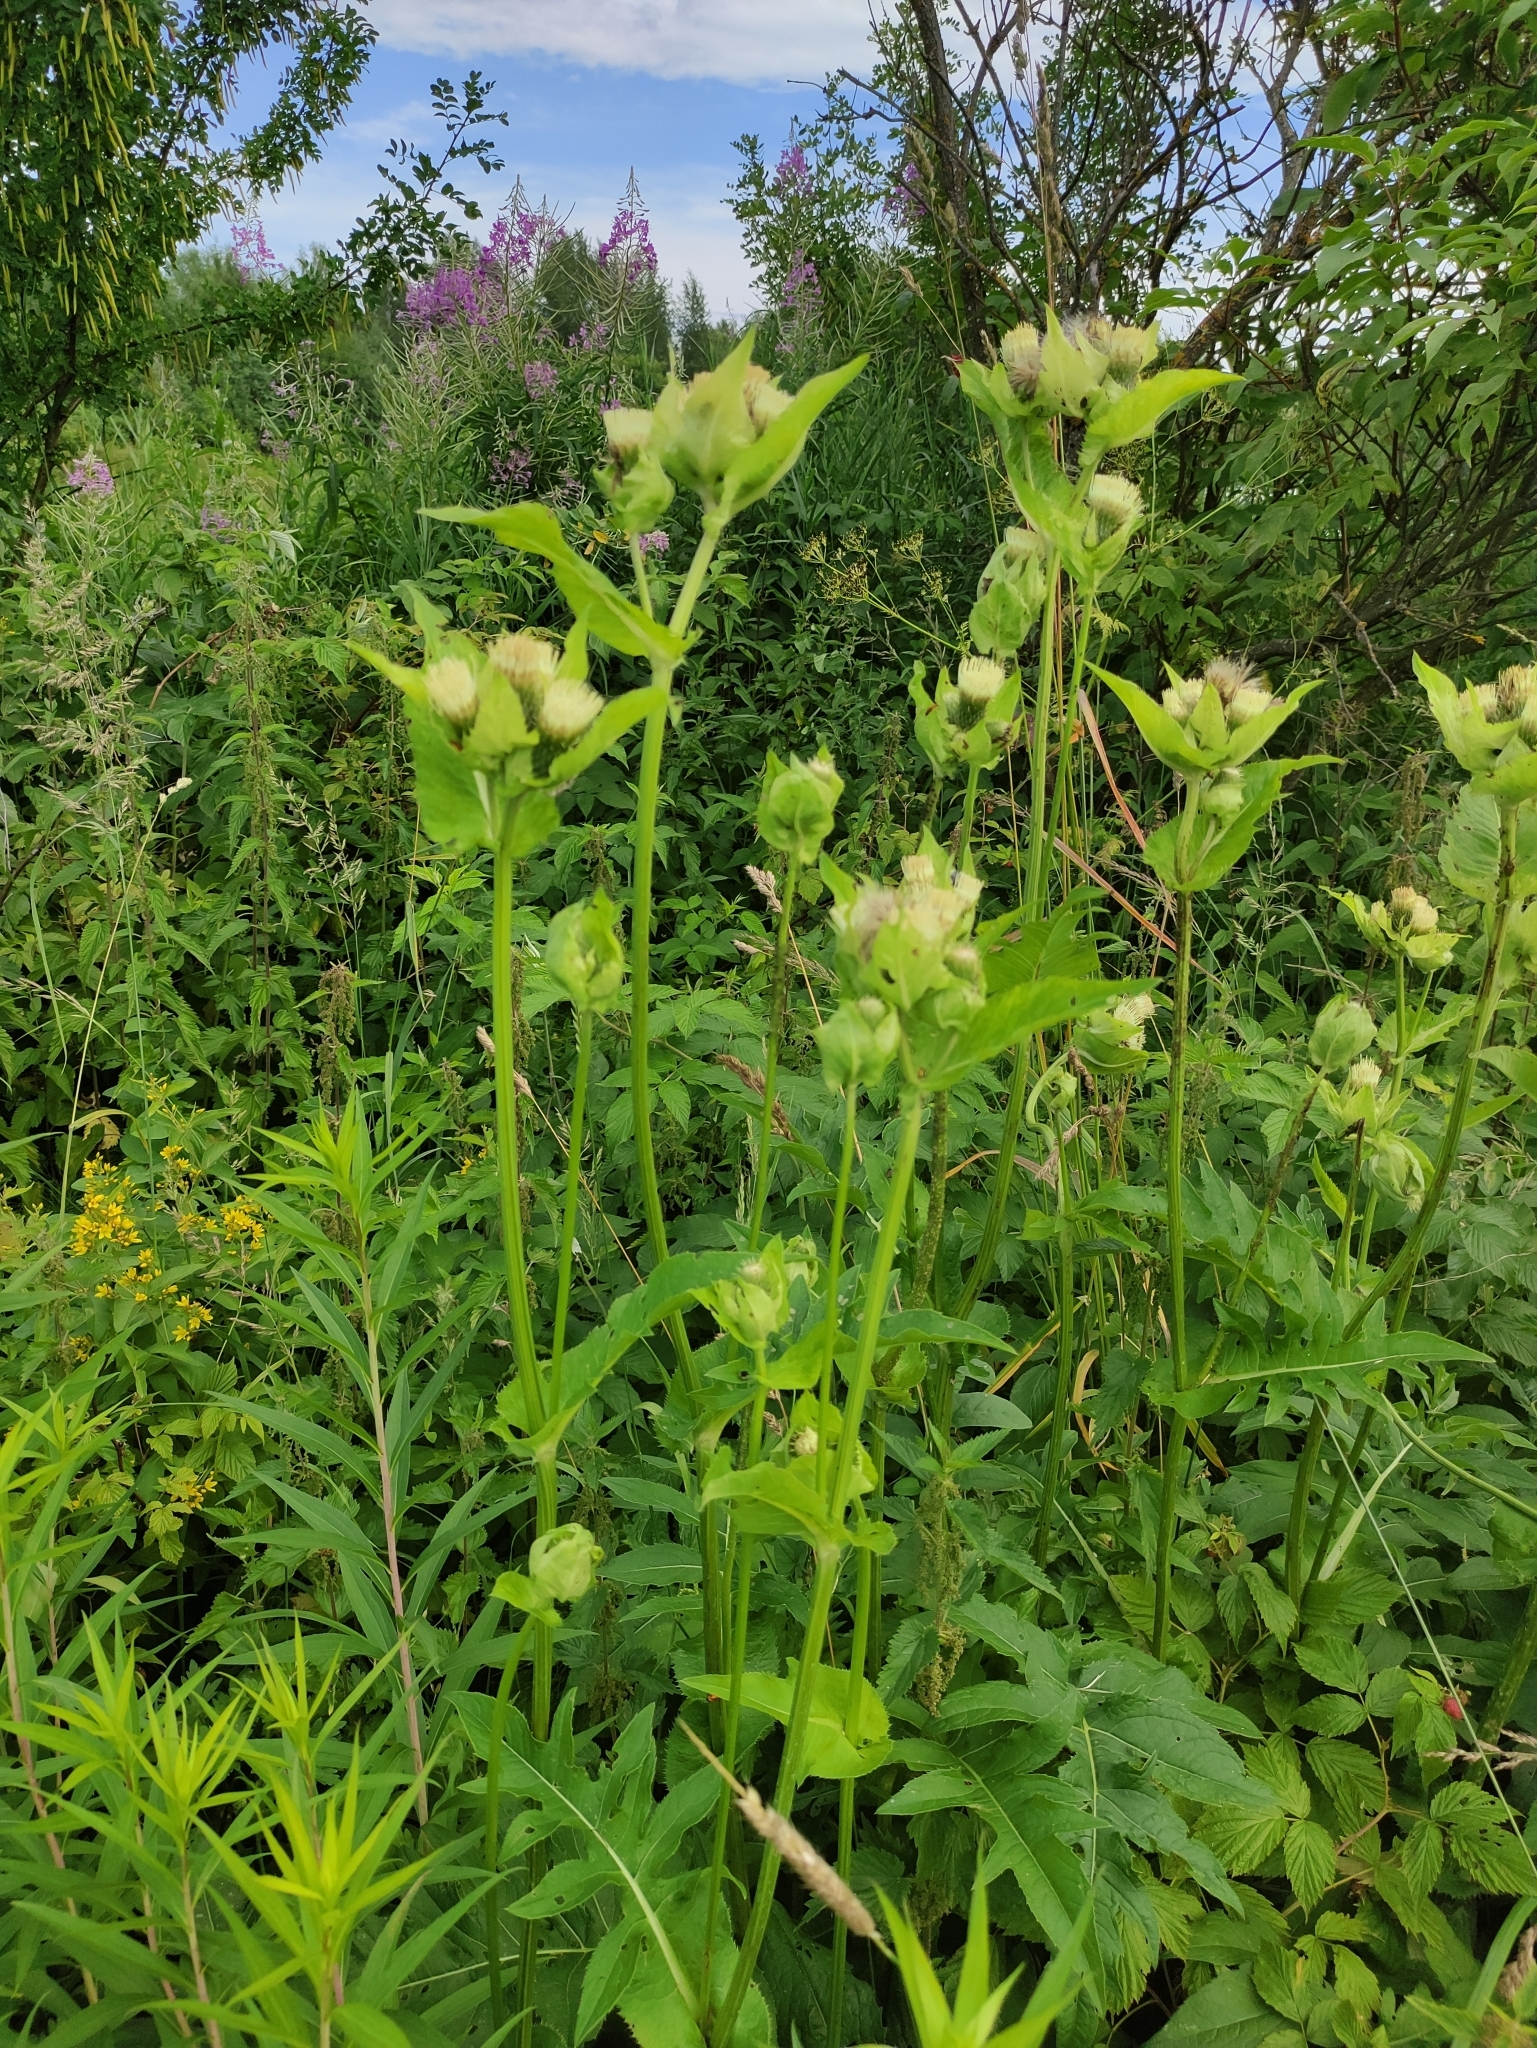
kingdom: Plantae
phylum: Tracheophyta
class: Magnoliopsida
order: Asterales
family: Asteraceae
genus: Cirsium
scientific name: Cirsium oleraceum
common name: Cabbage thistle
